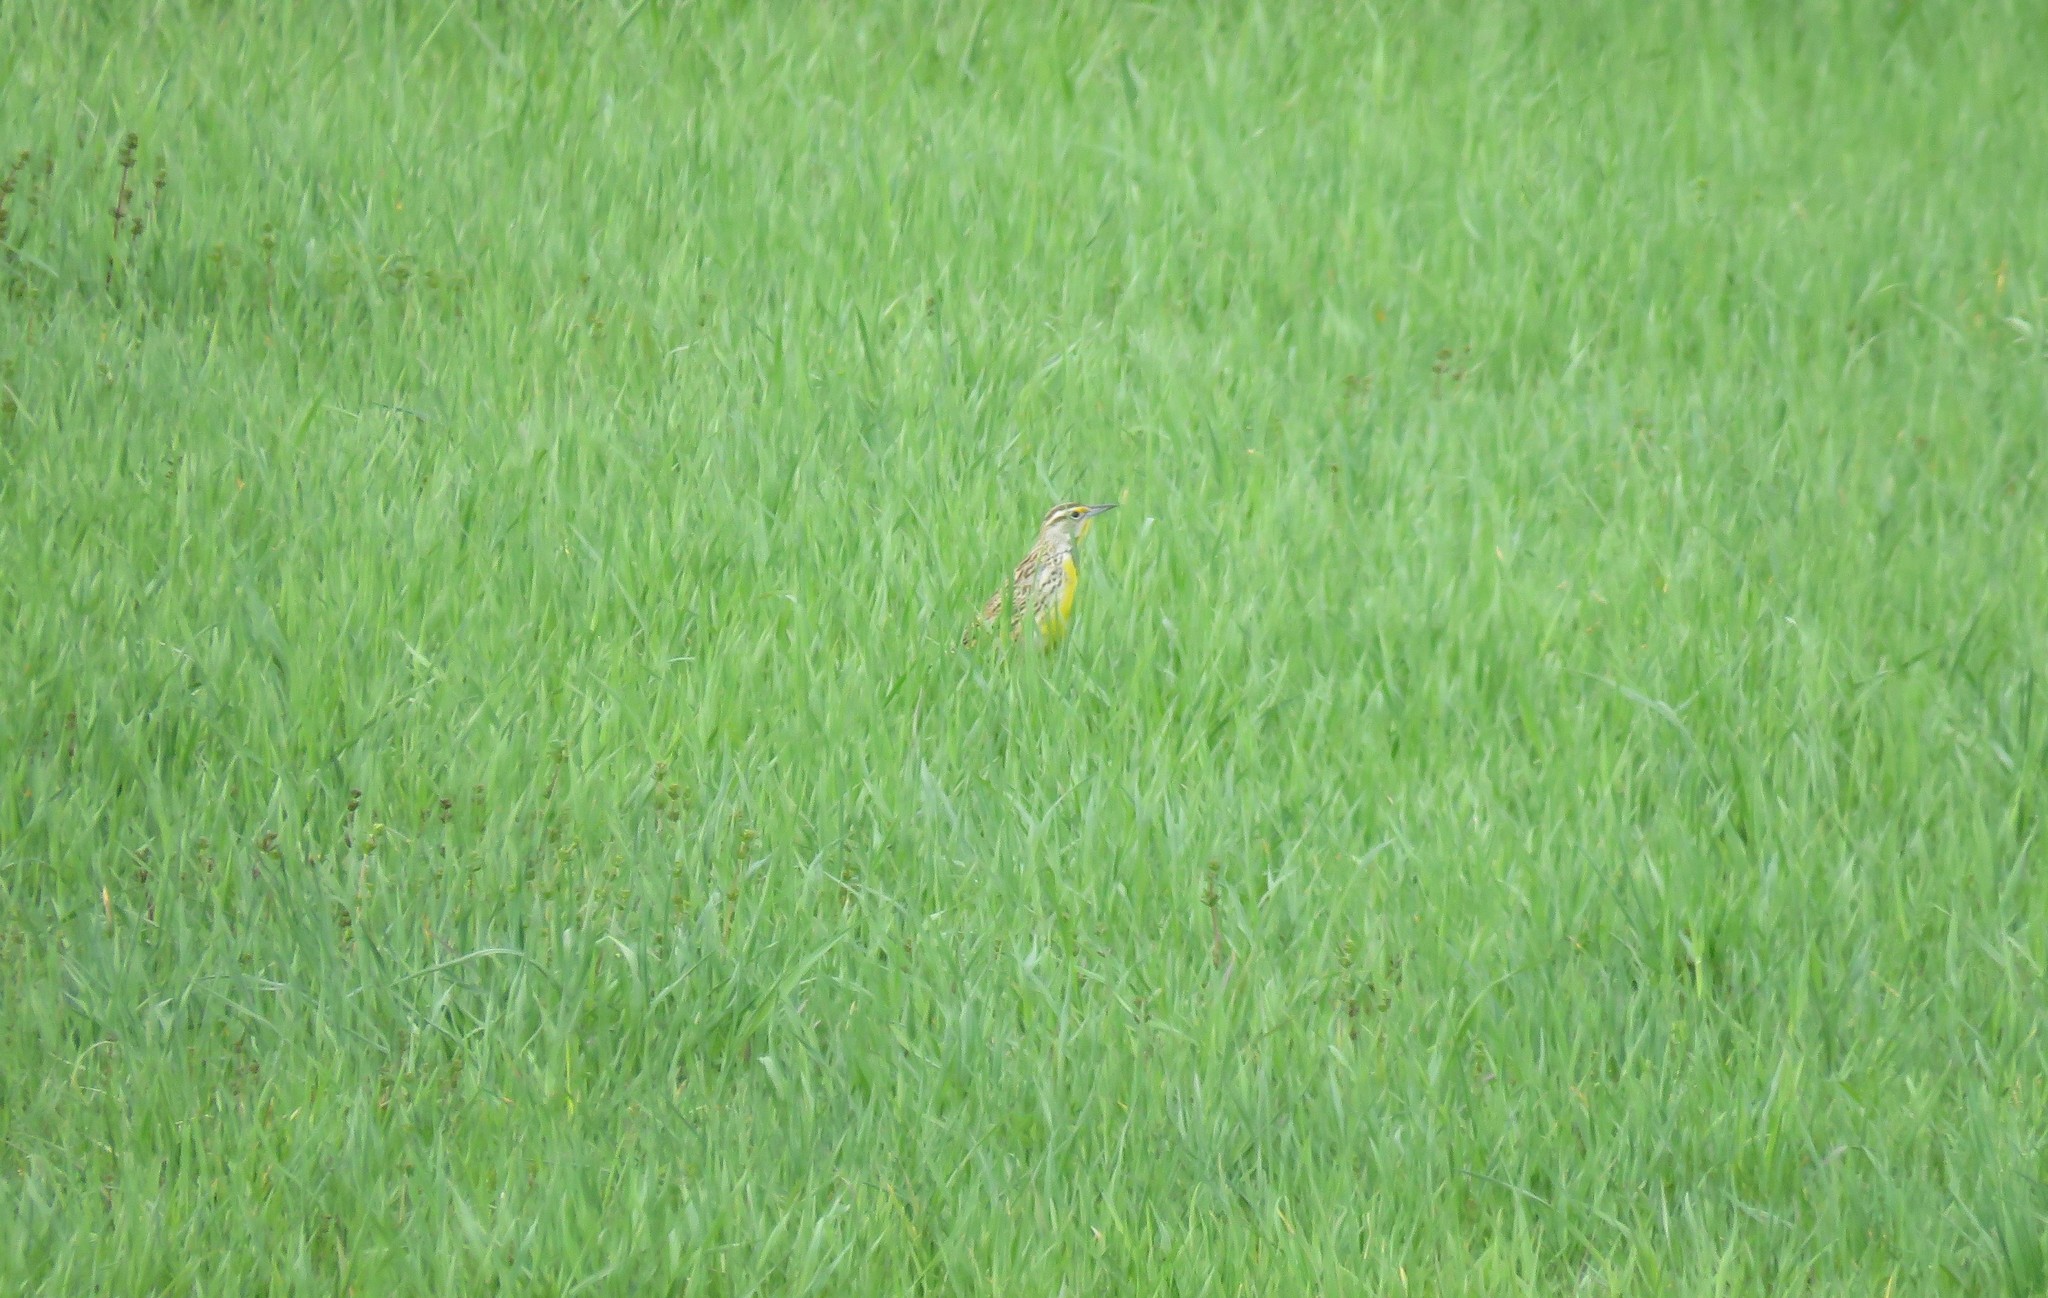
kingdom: Animalia
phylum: Chordata
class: Aves
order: Passeriformes
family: Icteridae
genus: Sturnella
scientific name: Sturnella magna
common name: Eastern meadowlark
